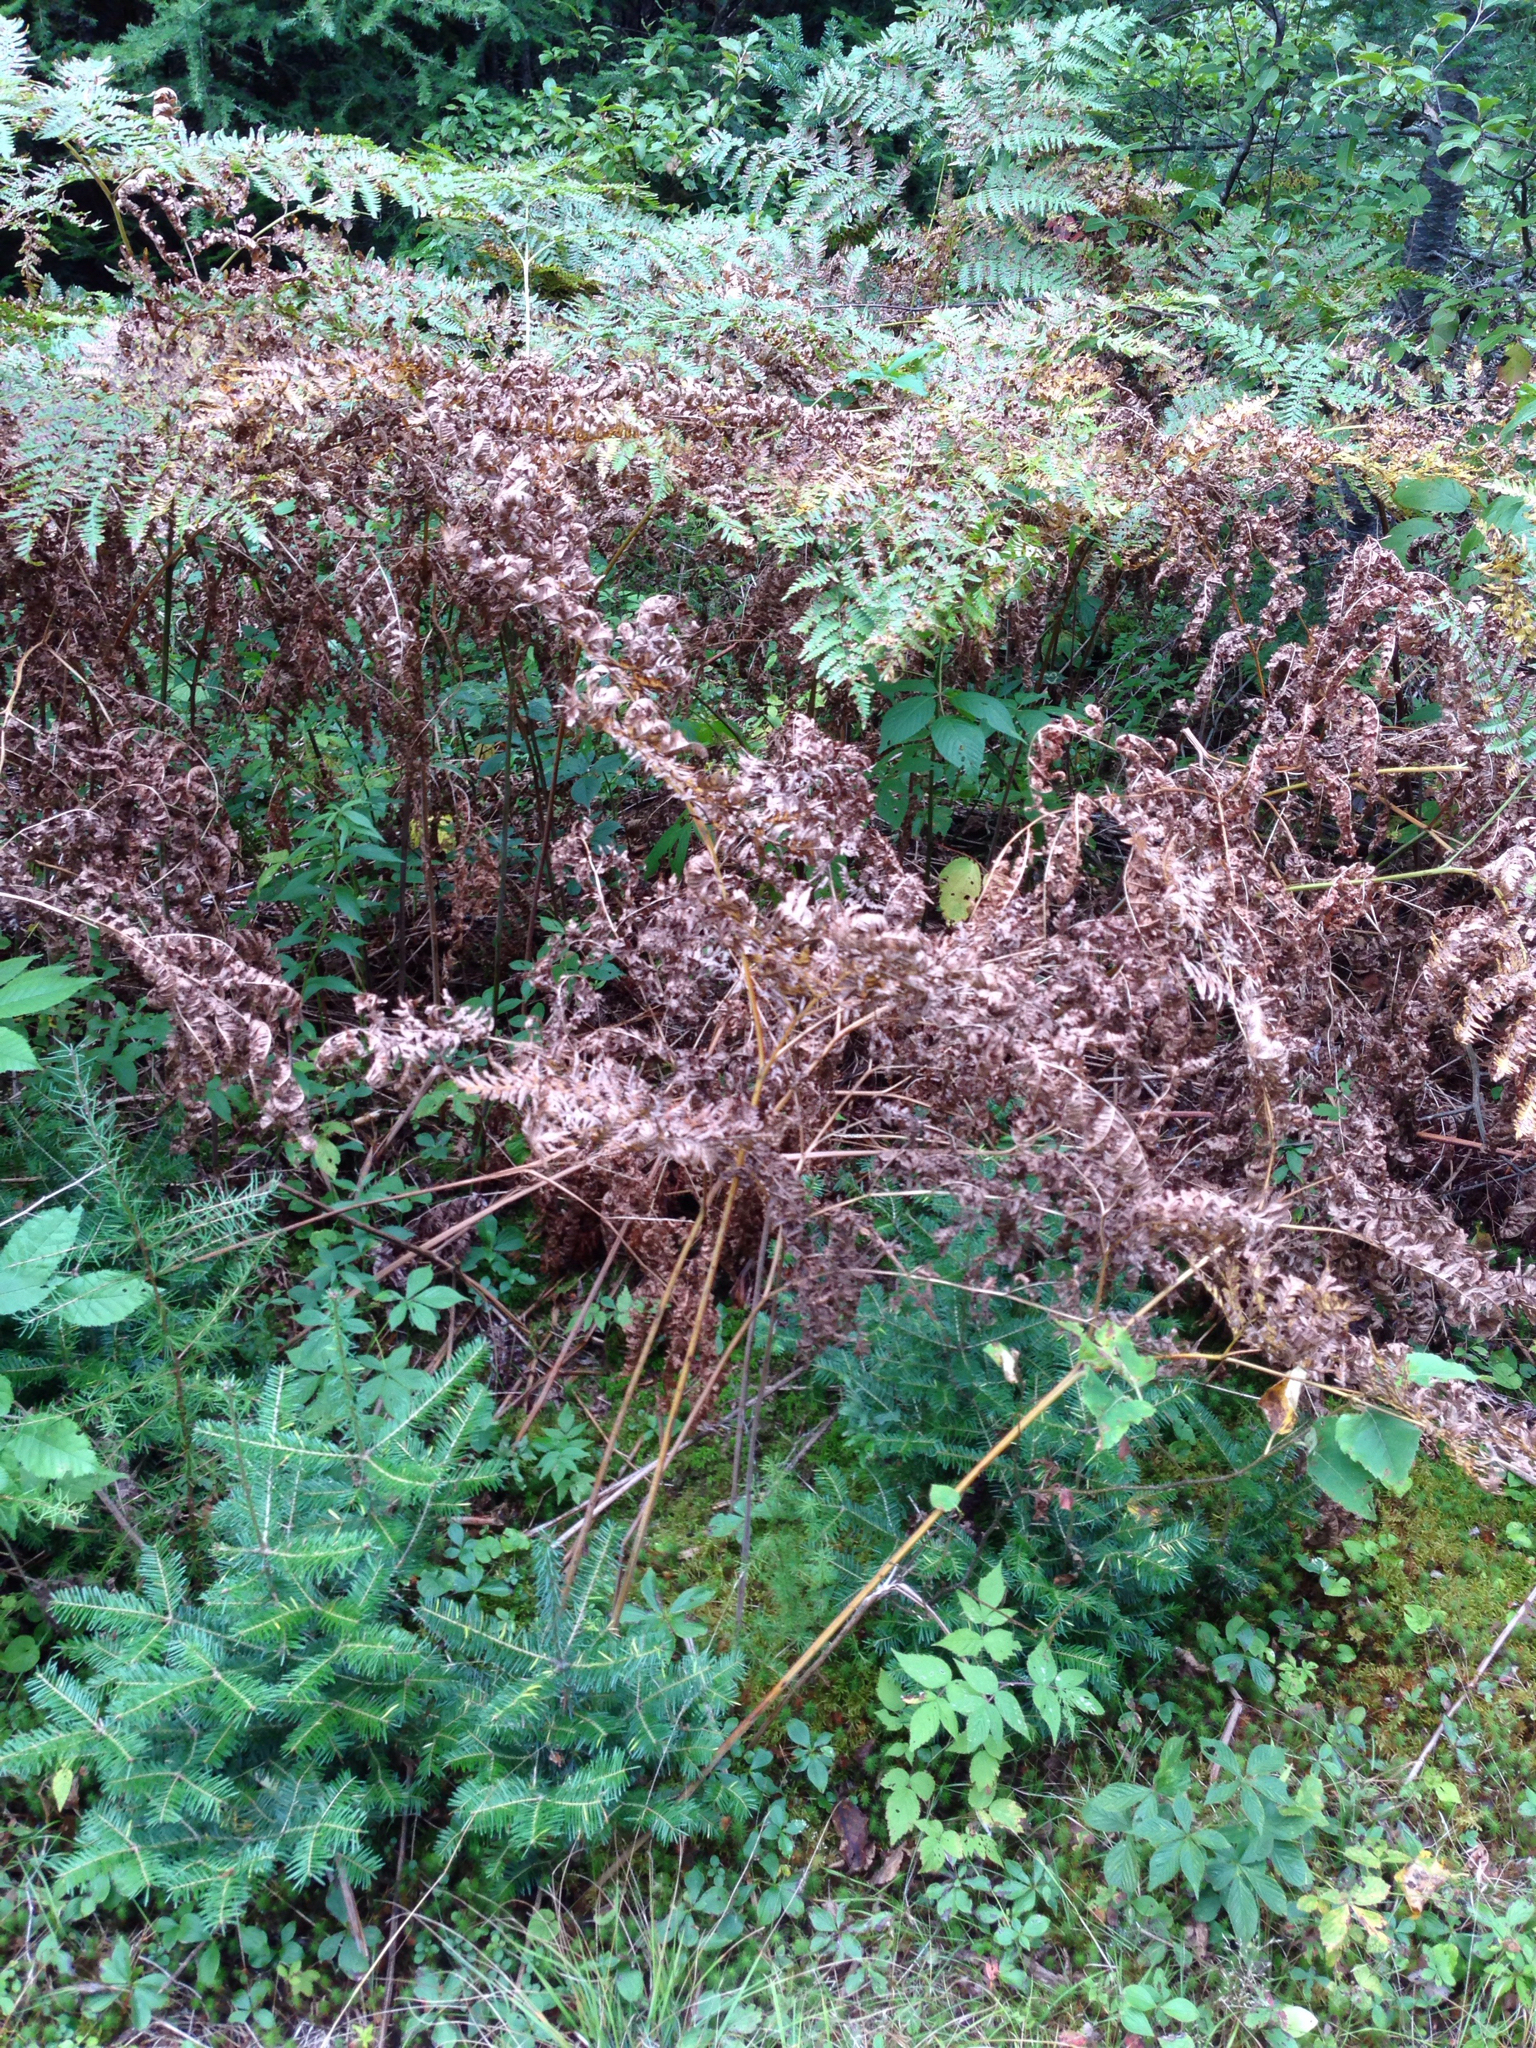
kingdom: Plantae
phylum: Tracheophyta
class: Polypodiopsida
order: Polypodiales
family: Dennstaedtiaceae
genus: Pteridium
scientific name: Pteridium aquilinum
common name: Bracken
